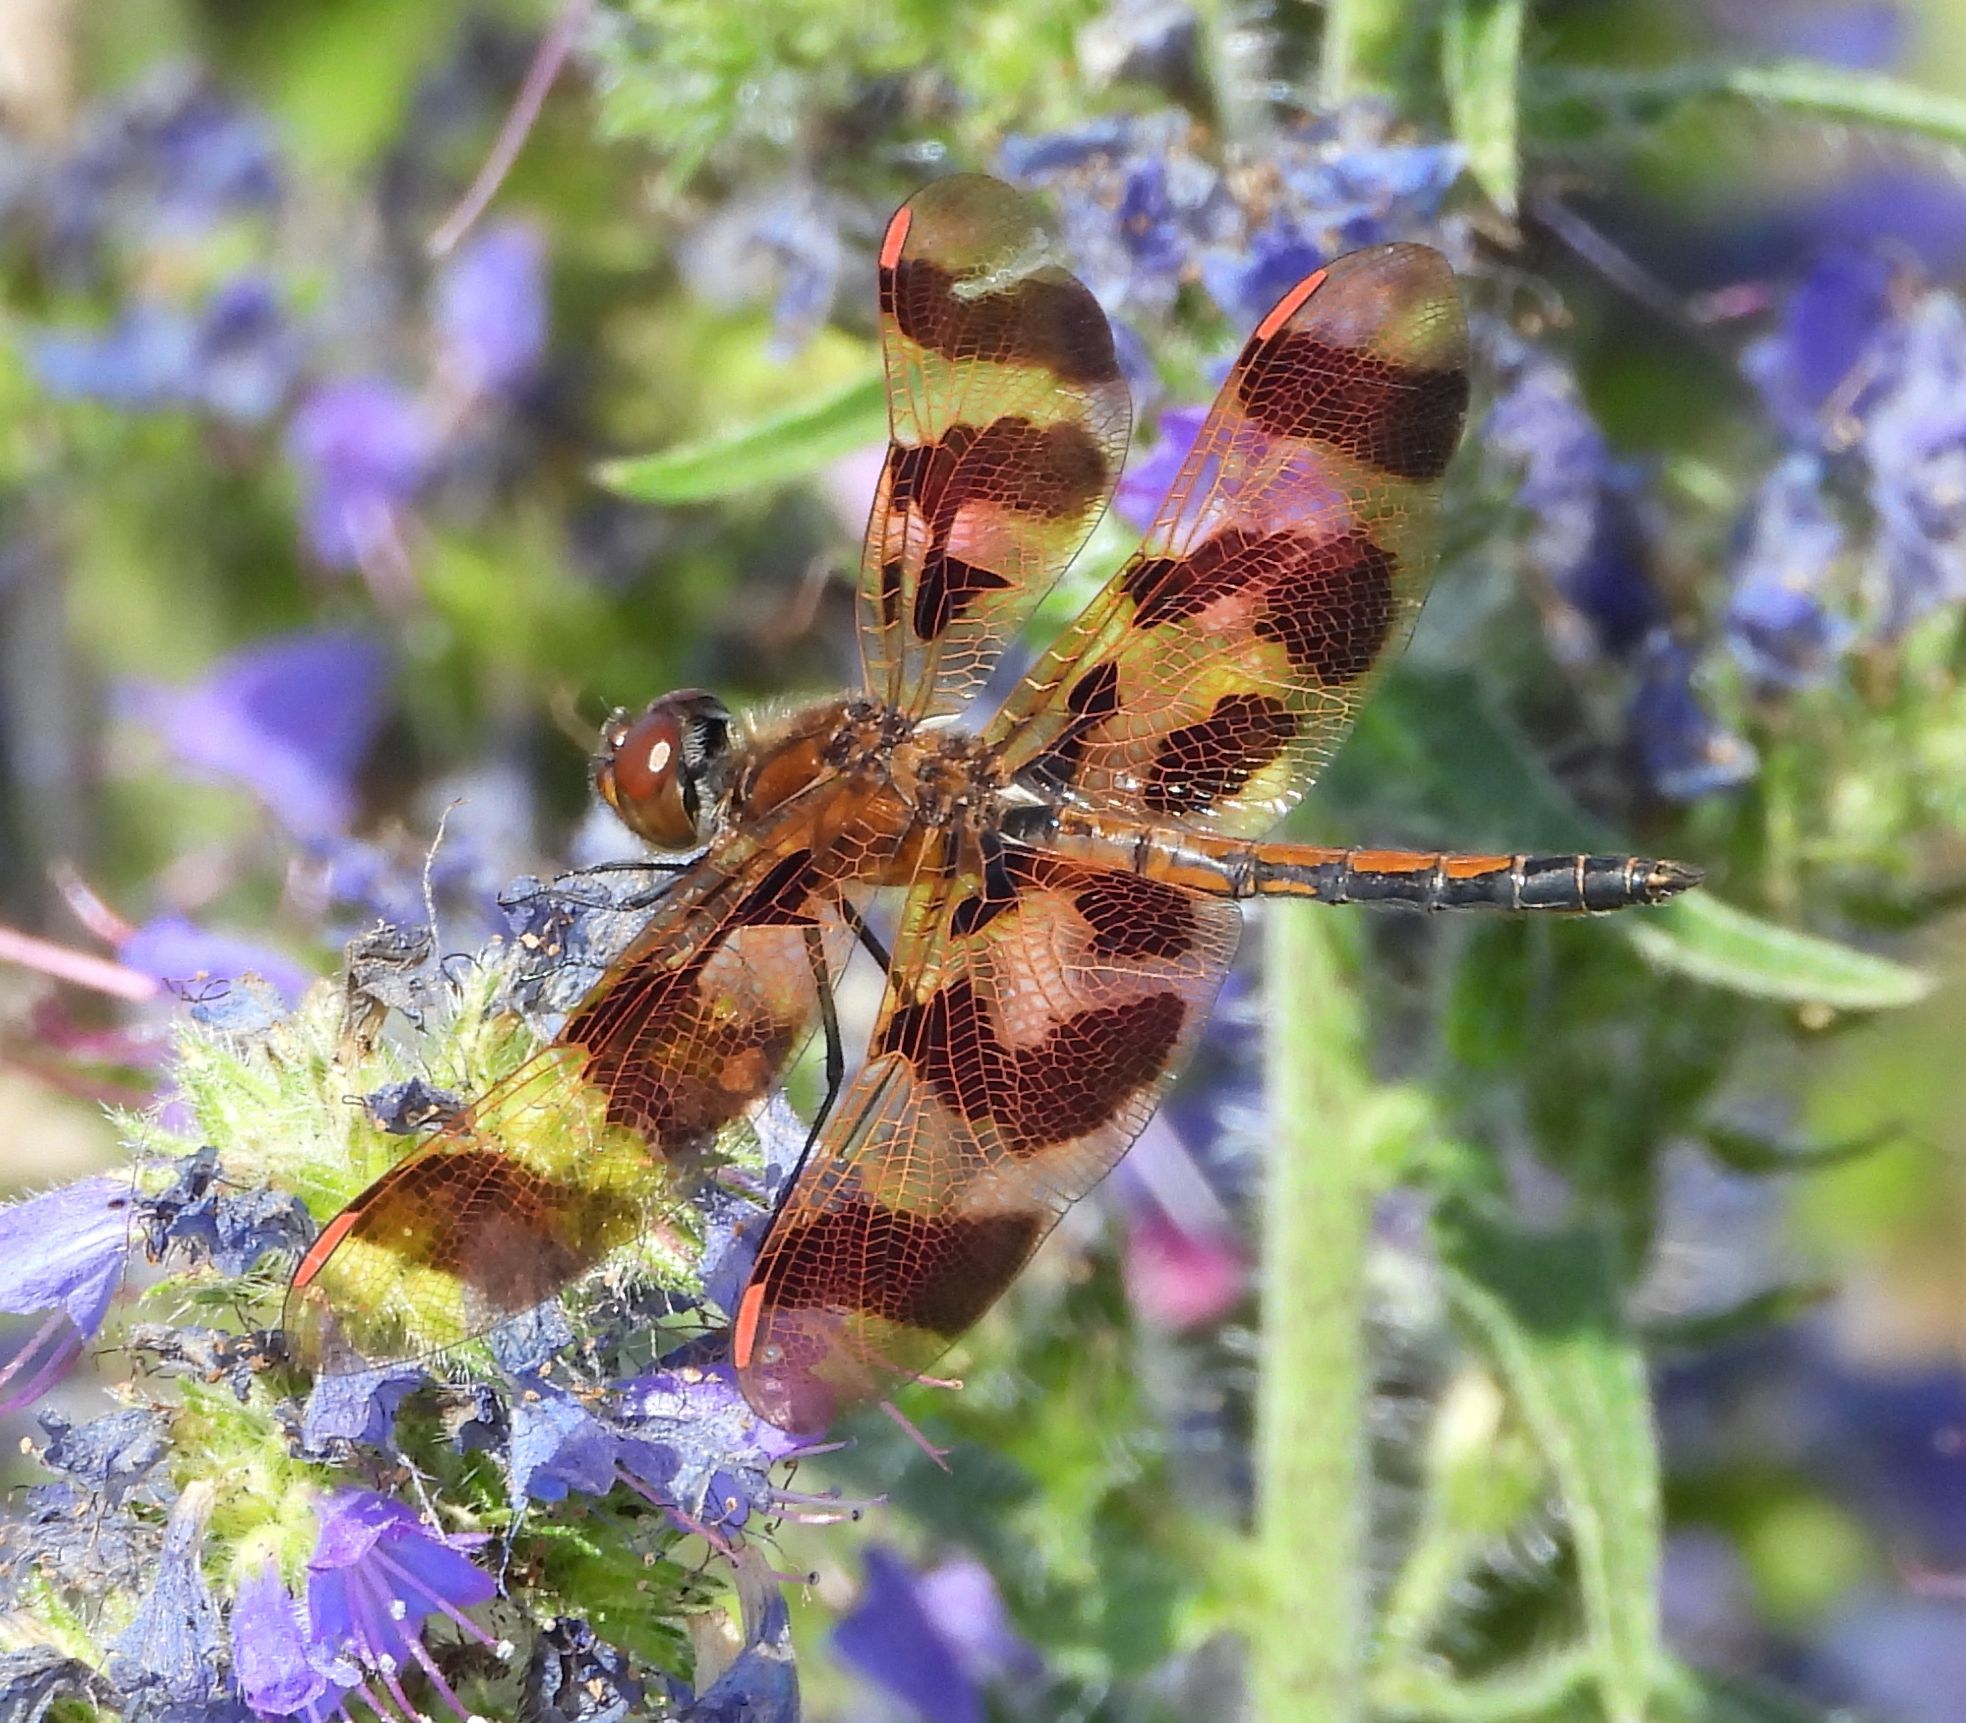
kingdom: Animalia
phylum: Arthropoda
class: Insecta
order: Odonata
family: Libellulidae
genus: Celithemis
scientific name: Celithemis eponina
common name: Halloween pennant
